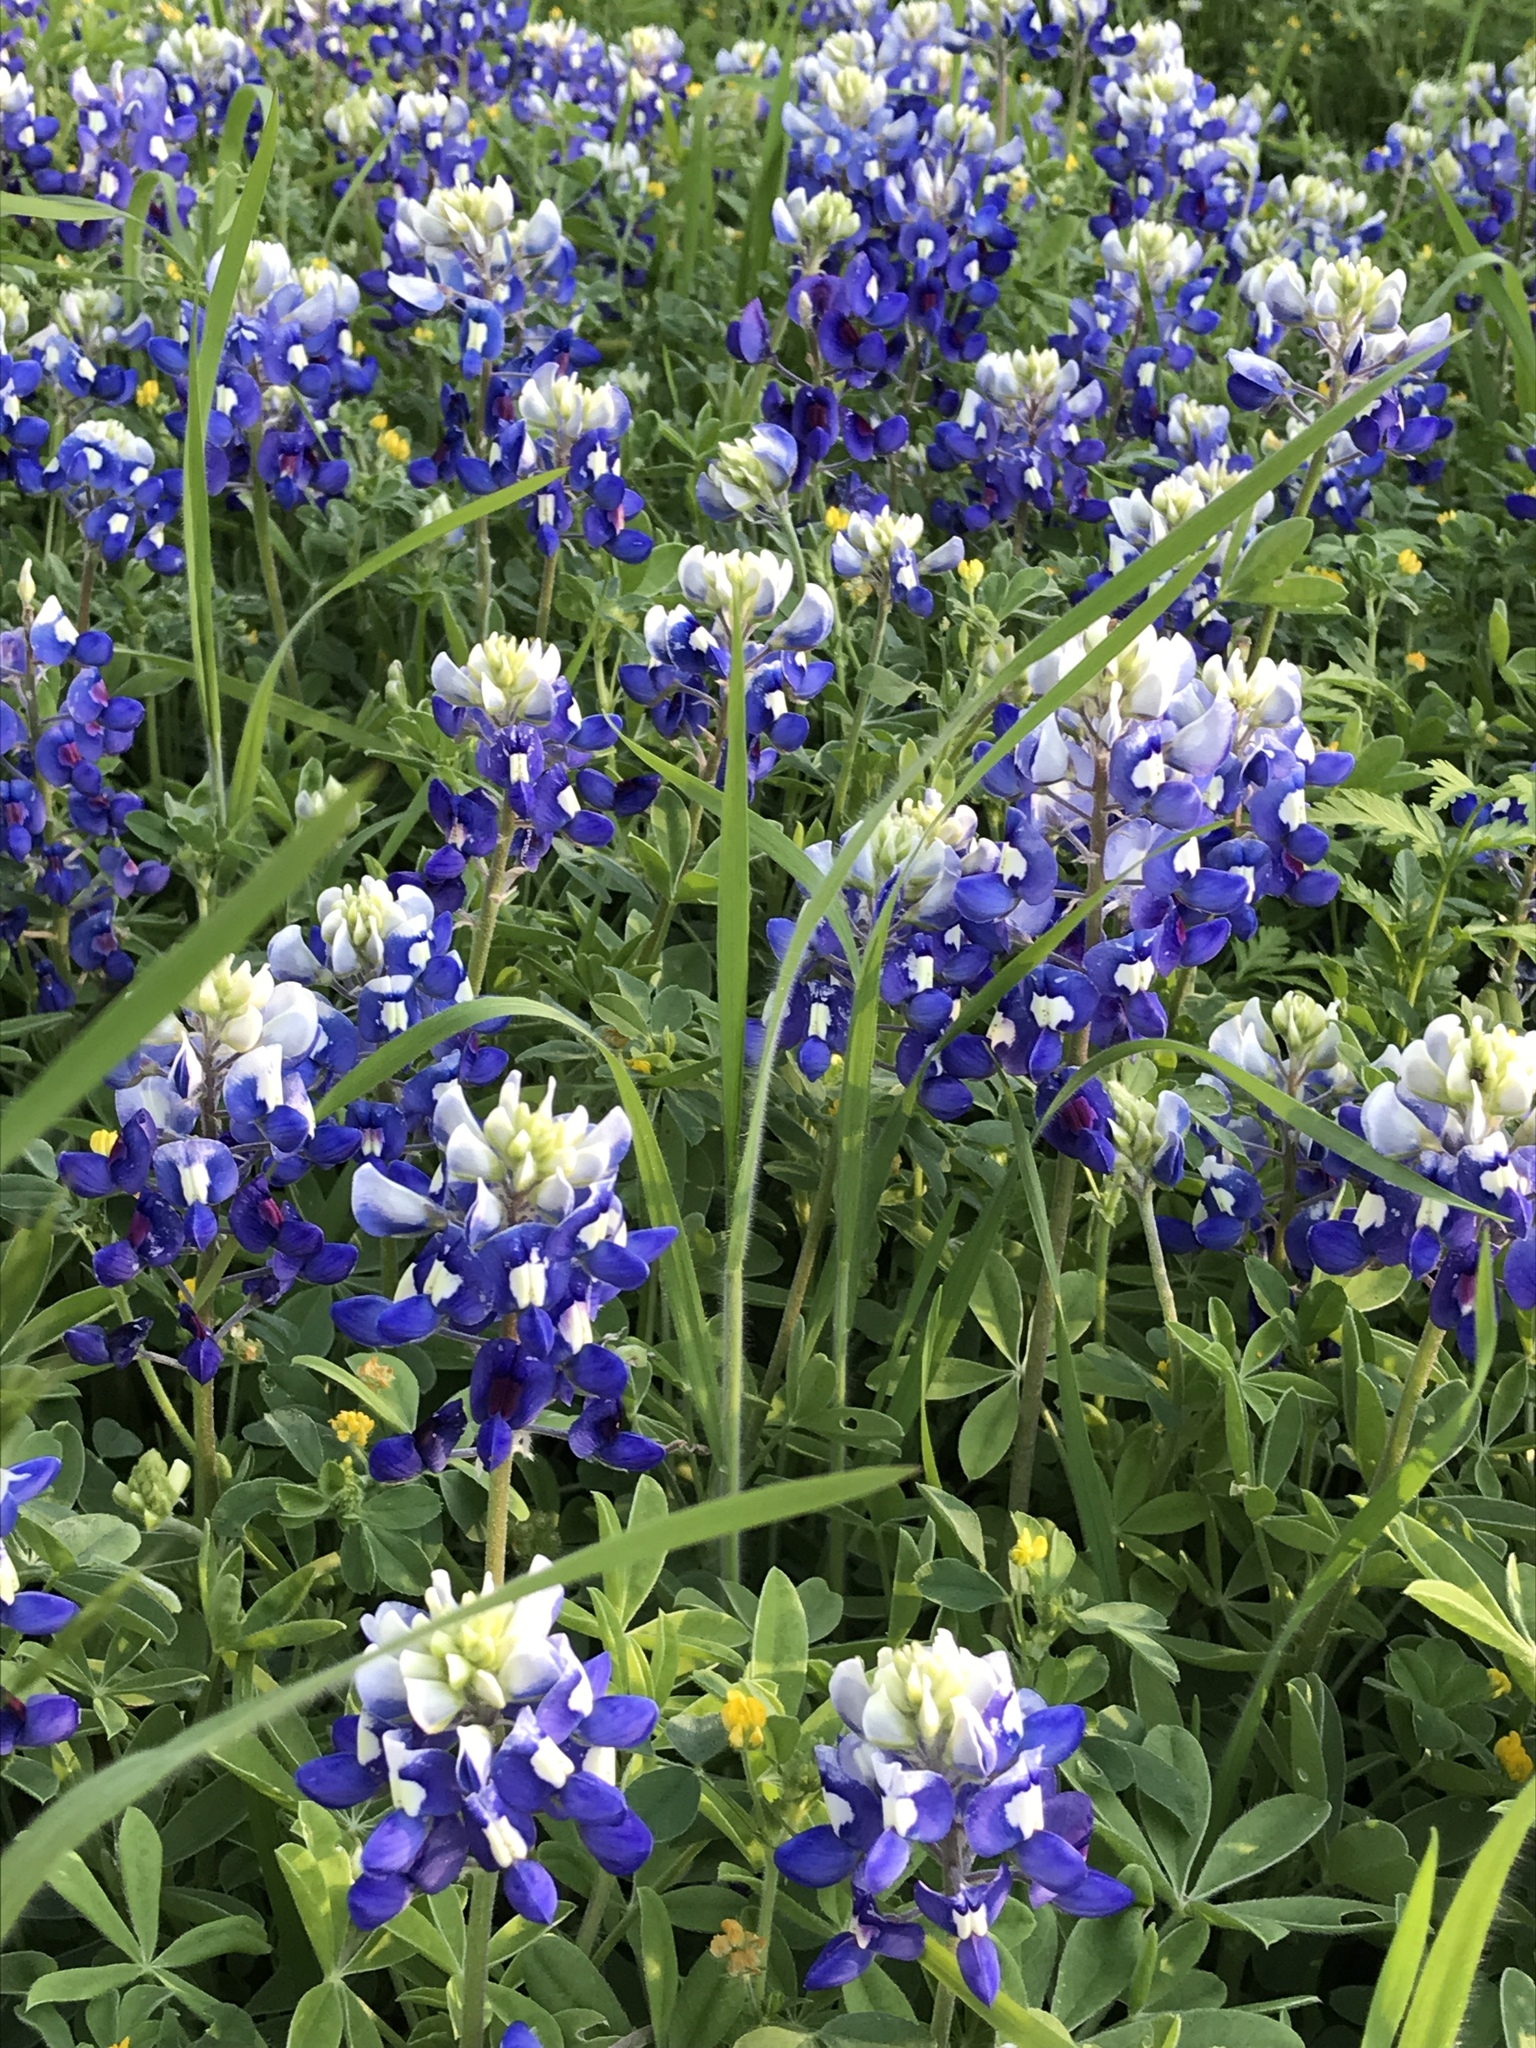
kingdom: Plantae
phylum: Tracheophyta
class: Magnoliopsida
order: Fabales
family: Fabaceae
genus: Lupinus
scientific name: Lupinus texensis
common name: Texas bluebonnet
